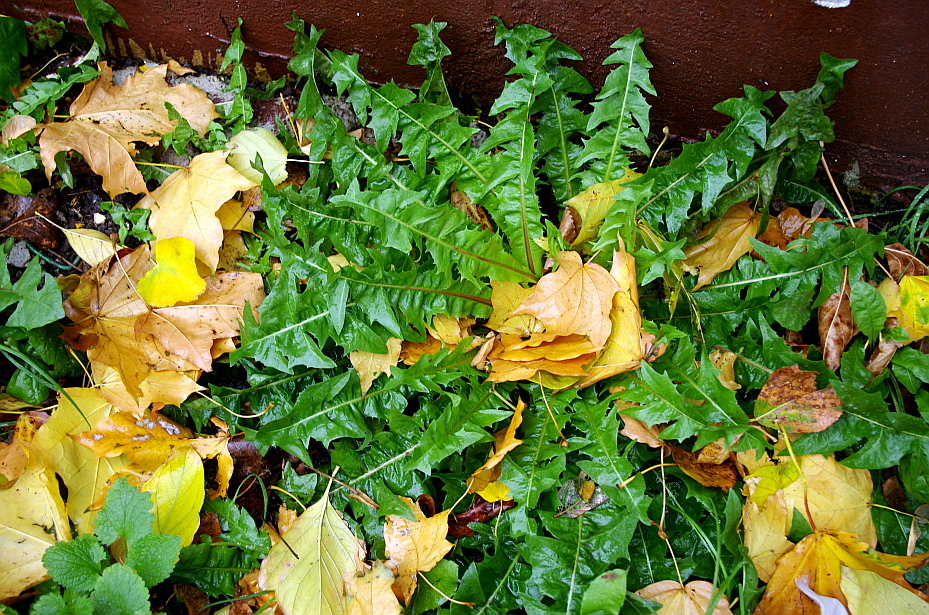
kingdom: Plantae
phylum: Tracheophyta
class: Magnoliopsida
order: Asterales
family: Asteraceae
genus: Taraxacum
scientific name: Taraxacum officinale
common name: Common dandelion
